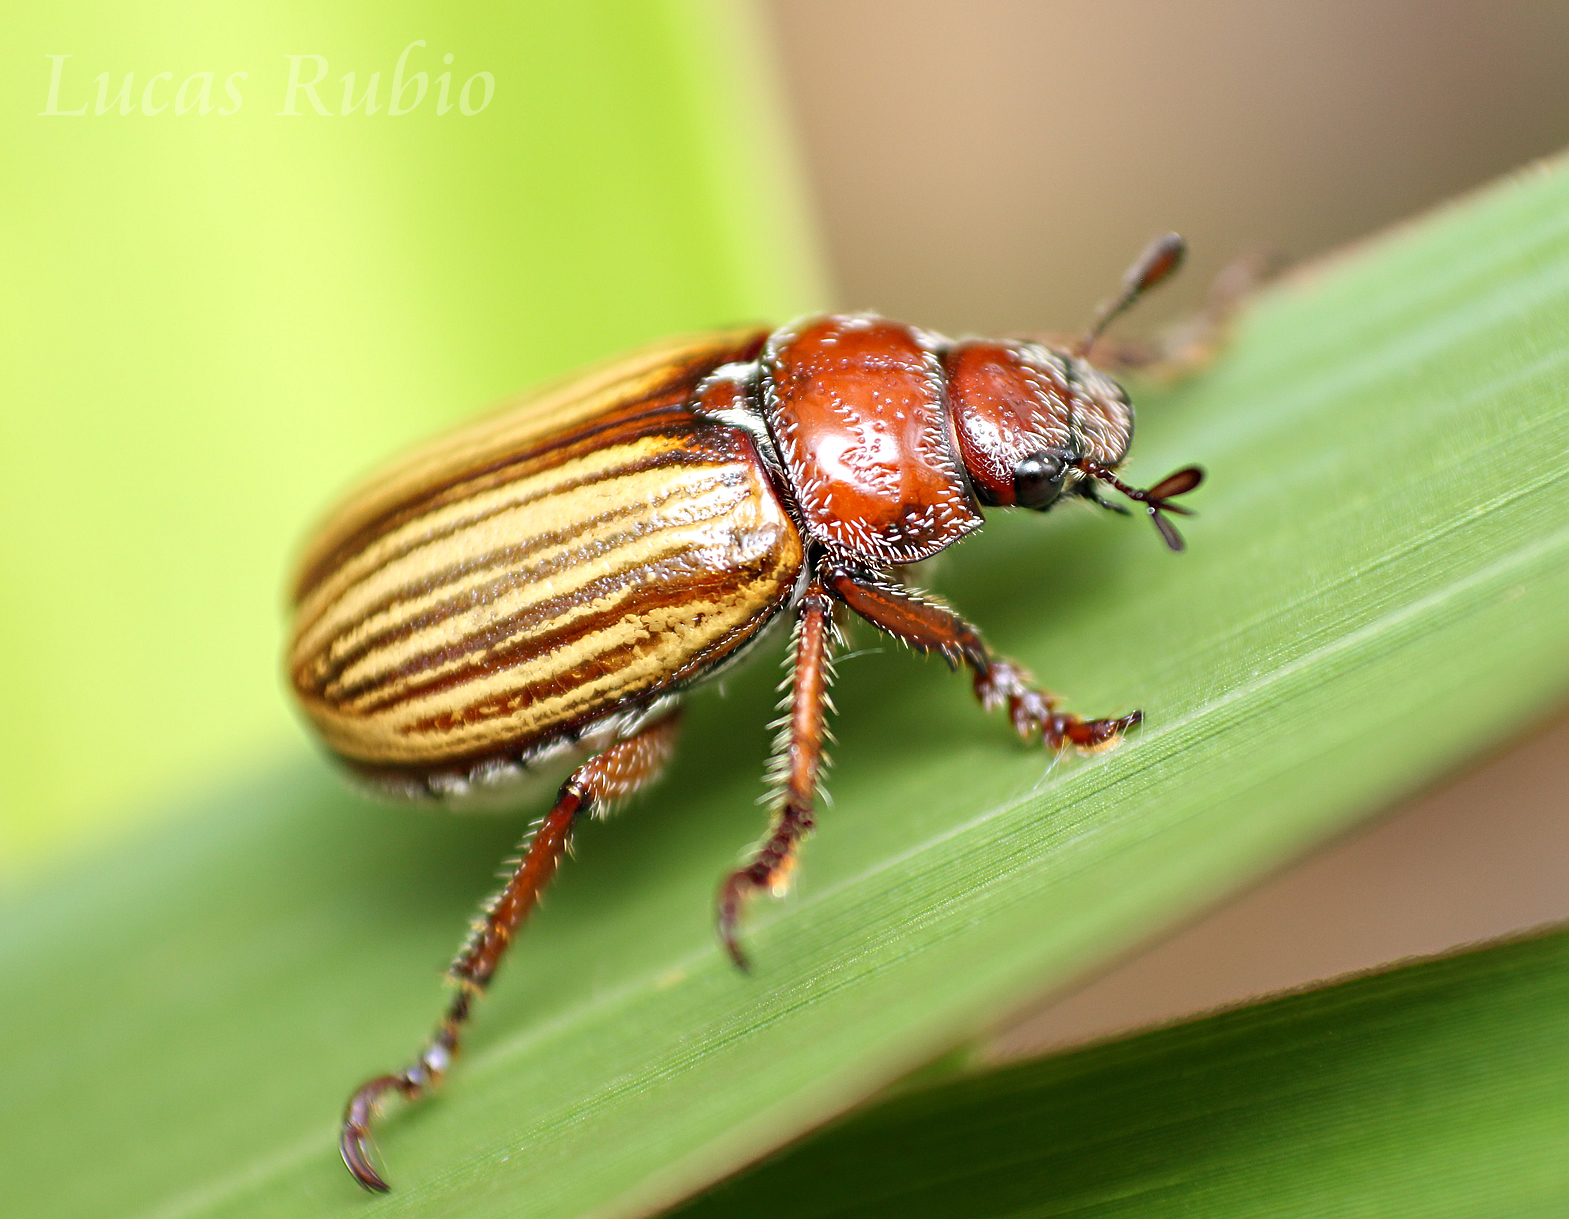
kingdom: Animalia
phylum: Arthropoda
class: Insecta
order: Coleoptera
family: Scarabaeidae
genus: Bolax
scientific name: Bolax flavolineata
